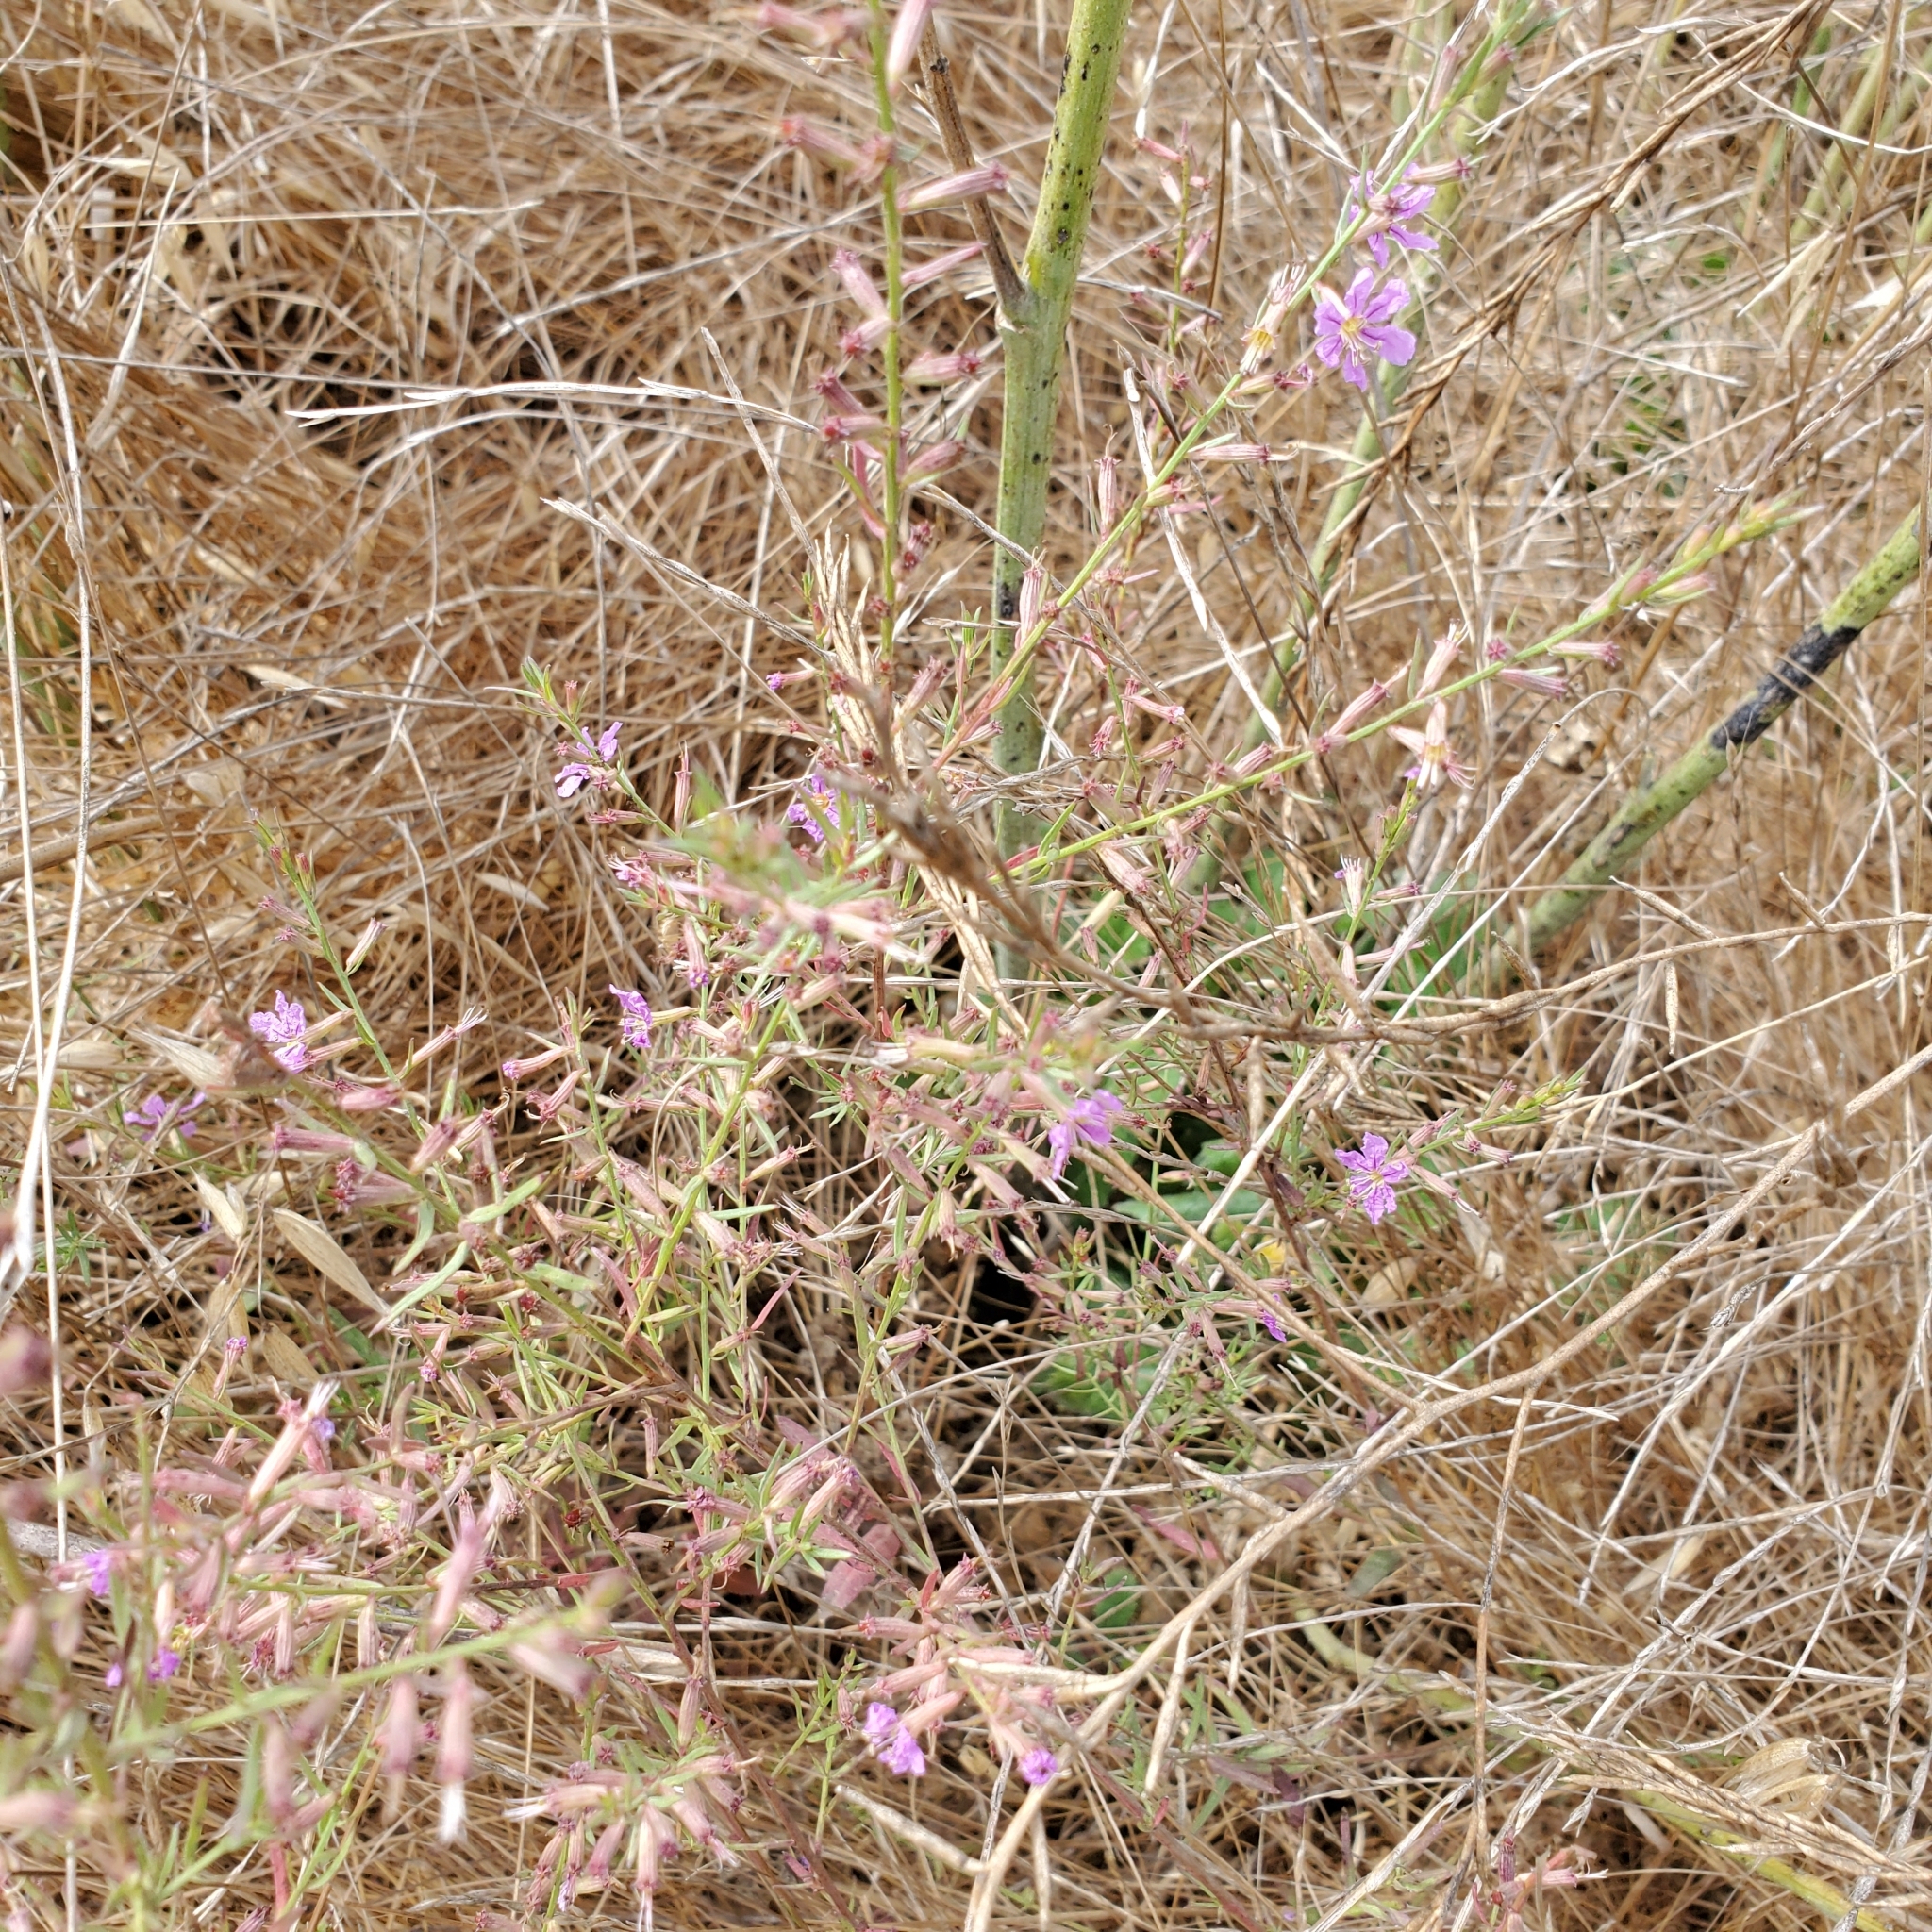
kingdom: Plantae
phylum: Tracheophyta
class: Magnoliopsida
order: Myrtales
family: Lythraceae
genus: Lythrum
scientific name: Lythrum californicum
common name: California loosestrife
